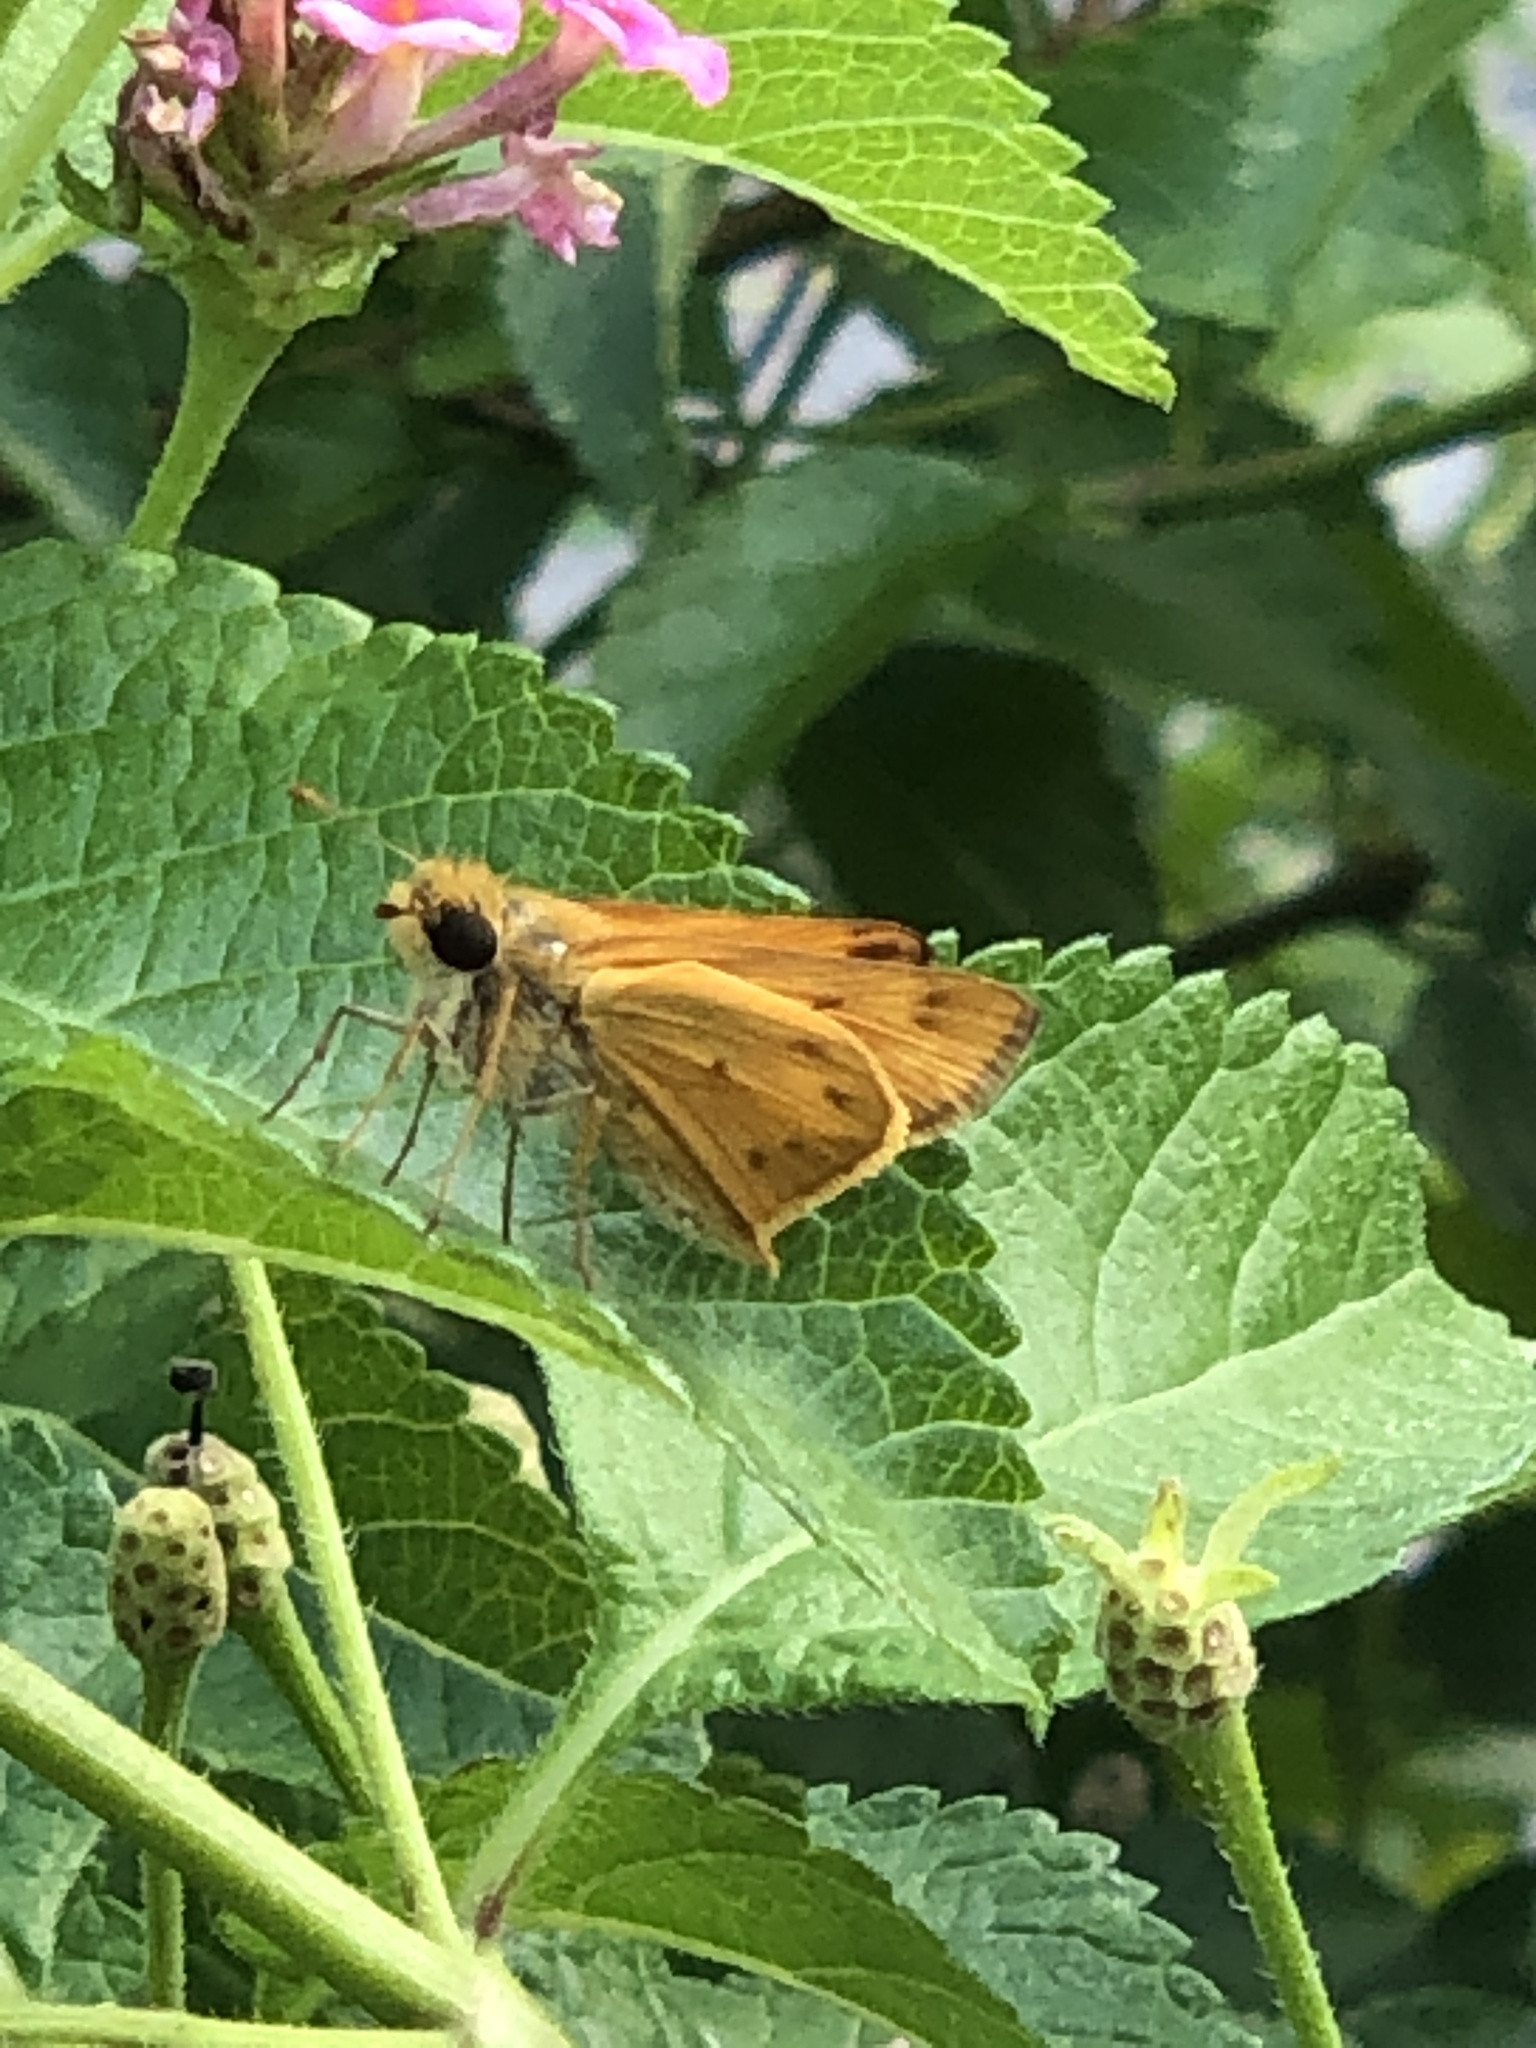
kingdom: Animalia
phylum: Arthropoda
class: Insecta
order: Lepidoptera
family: Hesperiidae
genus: Hylephila
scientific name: Hylephila phyleus
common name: Fiery skipper
